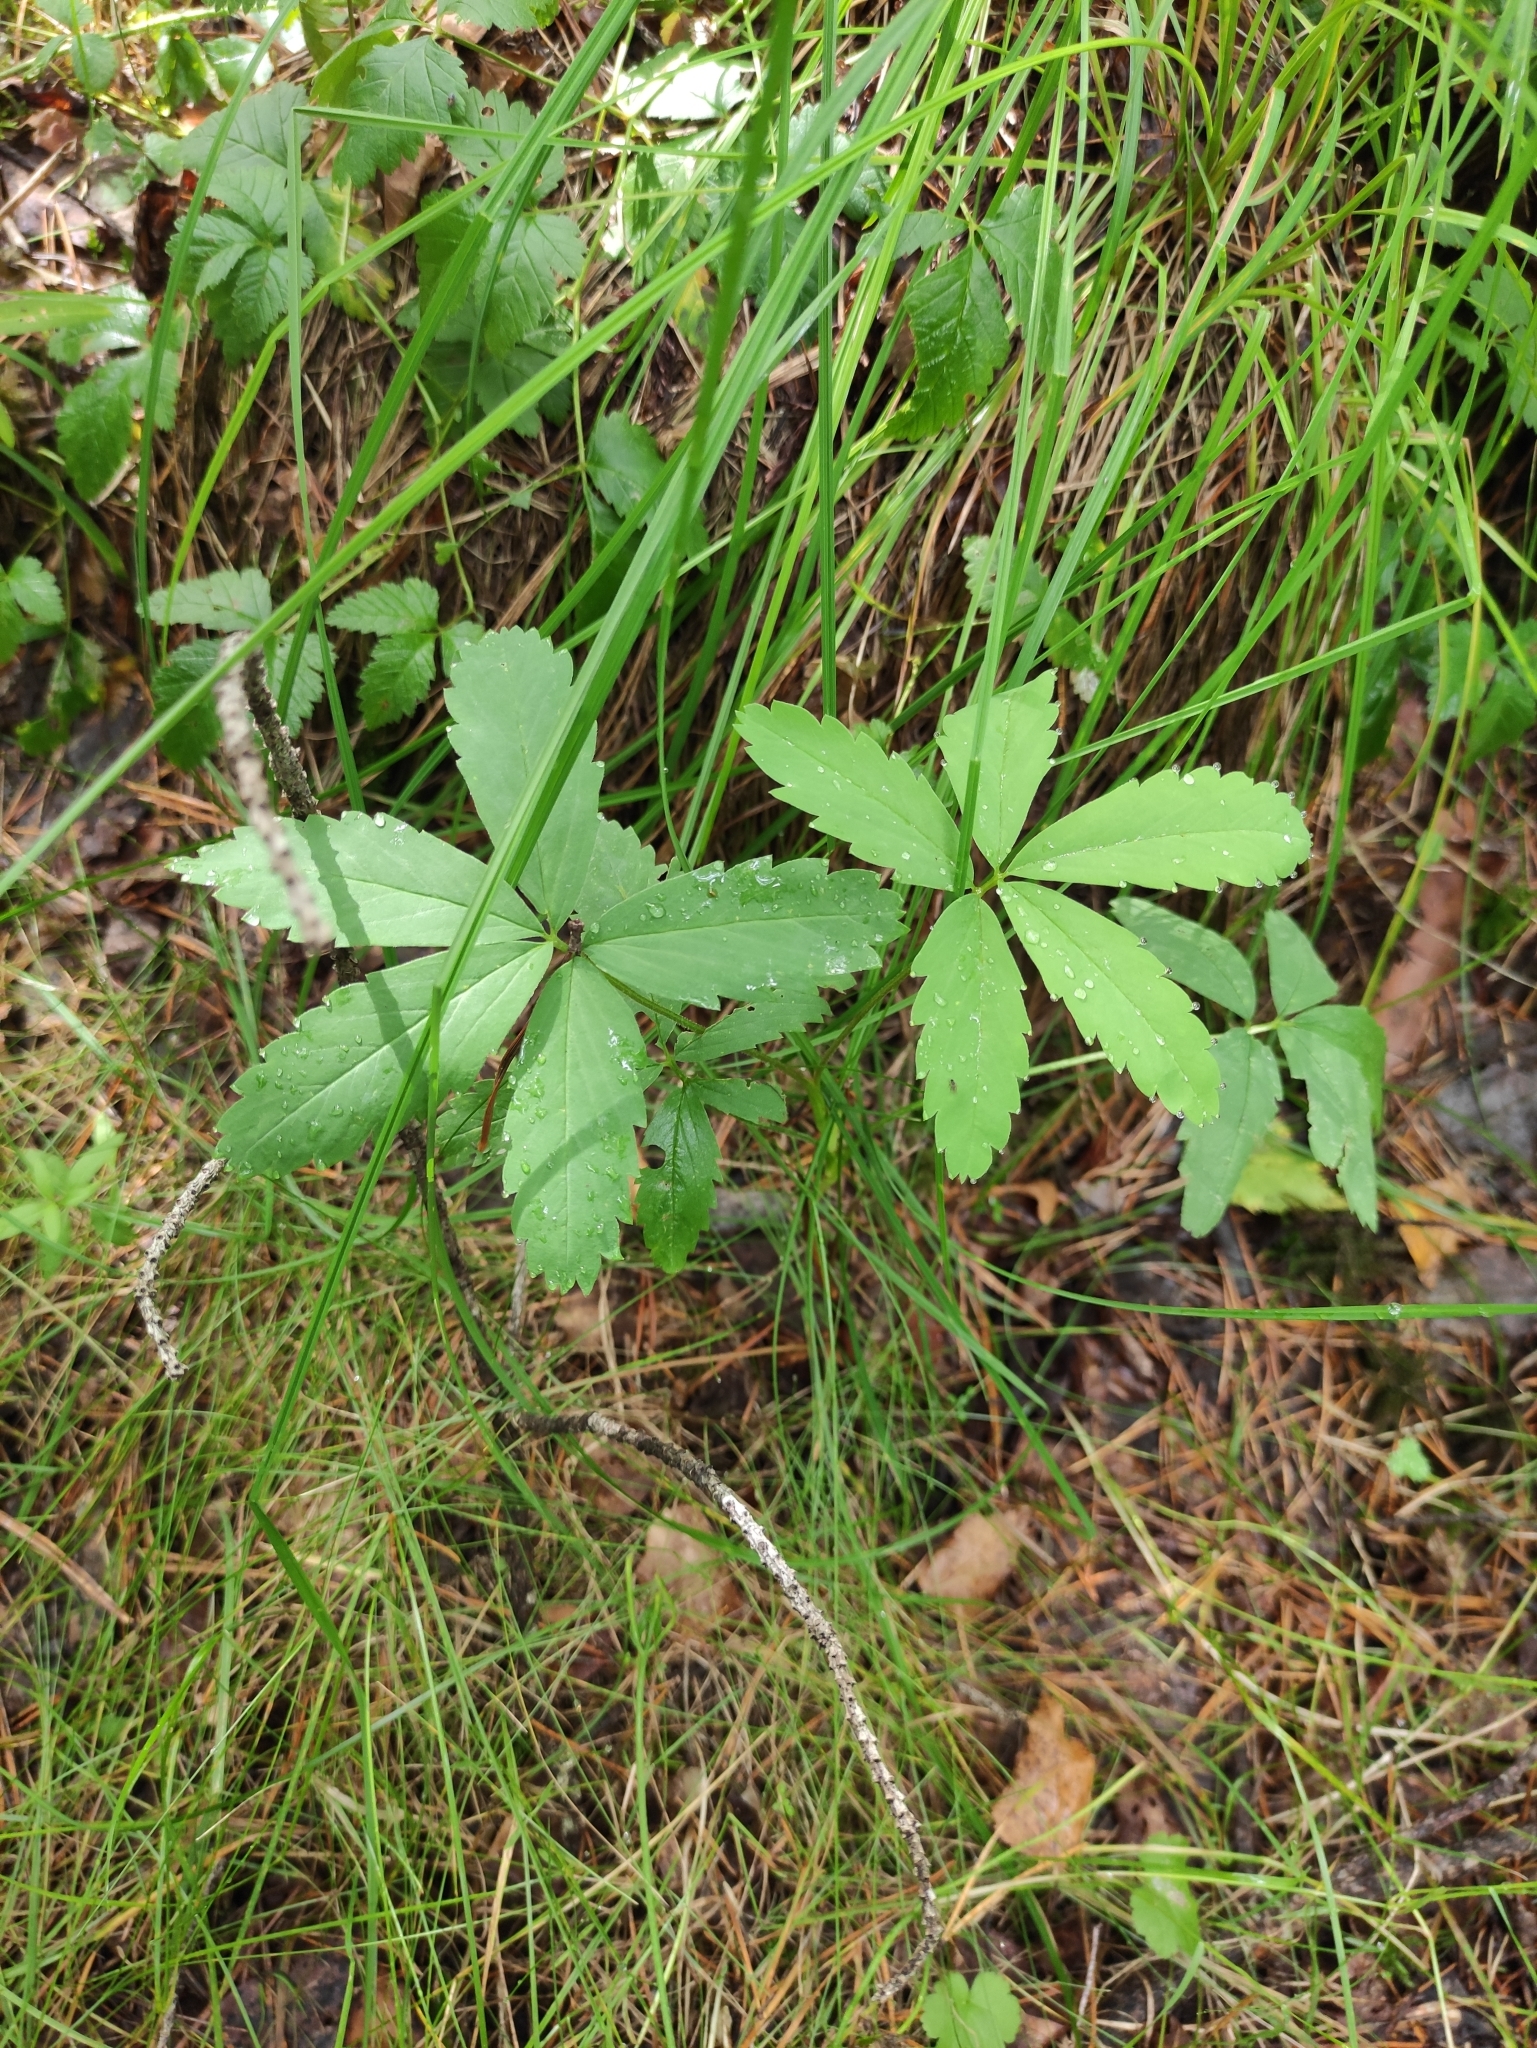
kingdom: Plantae
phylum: Tracheophyta
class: Magnoliopsida
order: Rosales
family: Rosaceae
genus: Comarum
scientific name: Comarum palustre
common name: Marsh cinquefoil
